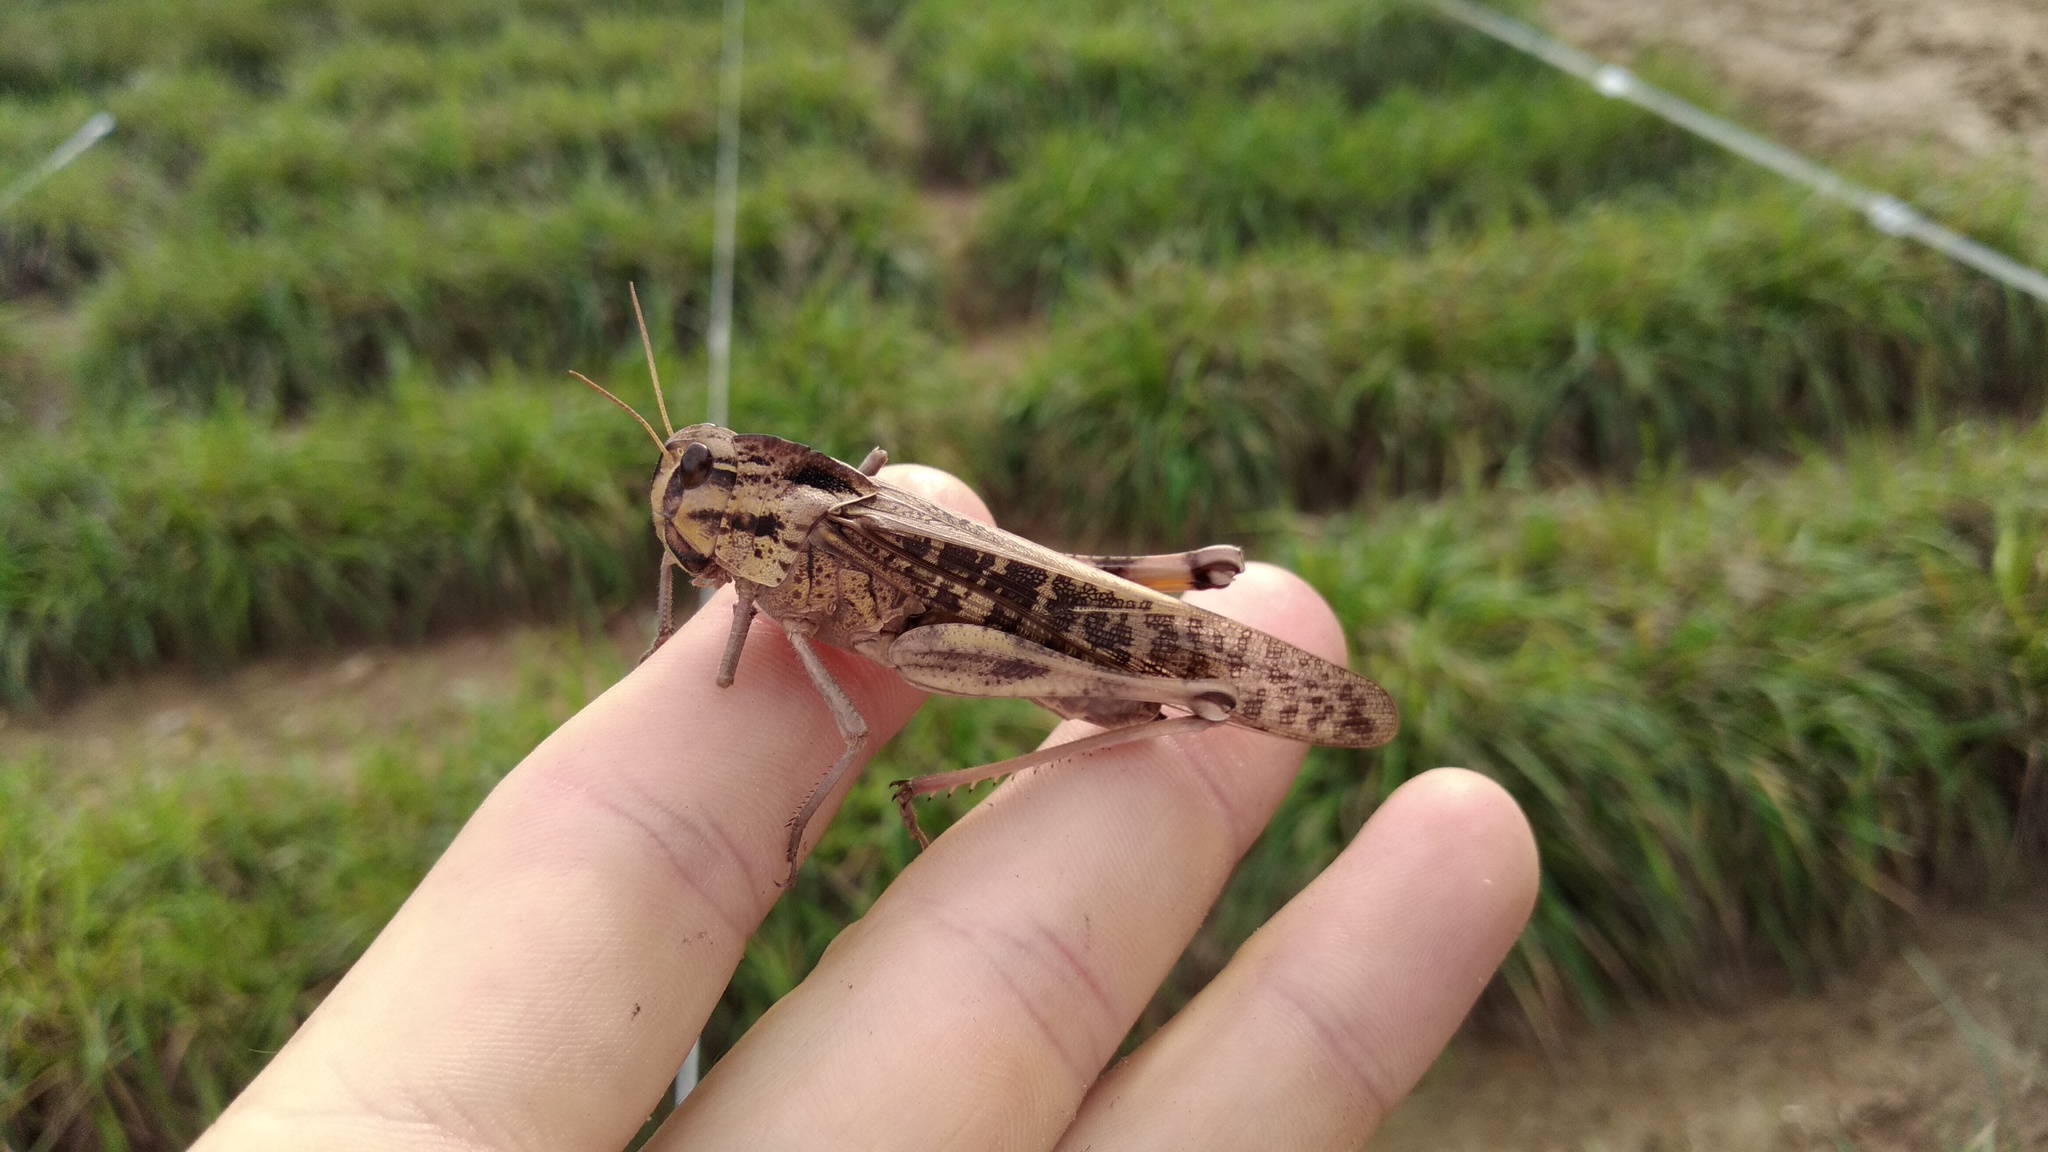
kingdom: Animalia
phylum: Arthropoda
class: Insecta
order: Orthoptera
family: Acrididae
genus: Locusta
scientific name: Locusta migratoria
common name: Migratory locust
